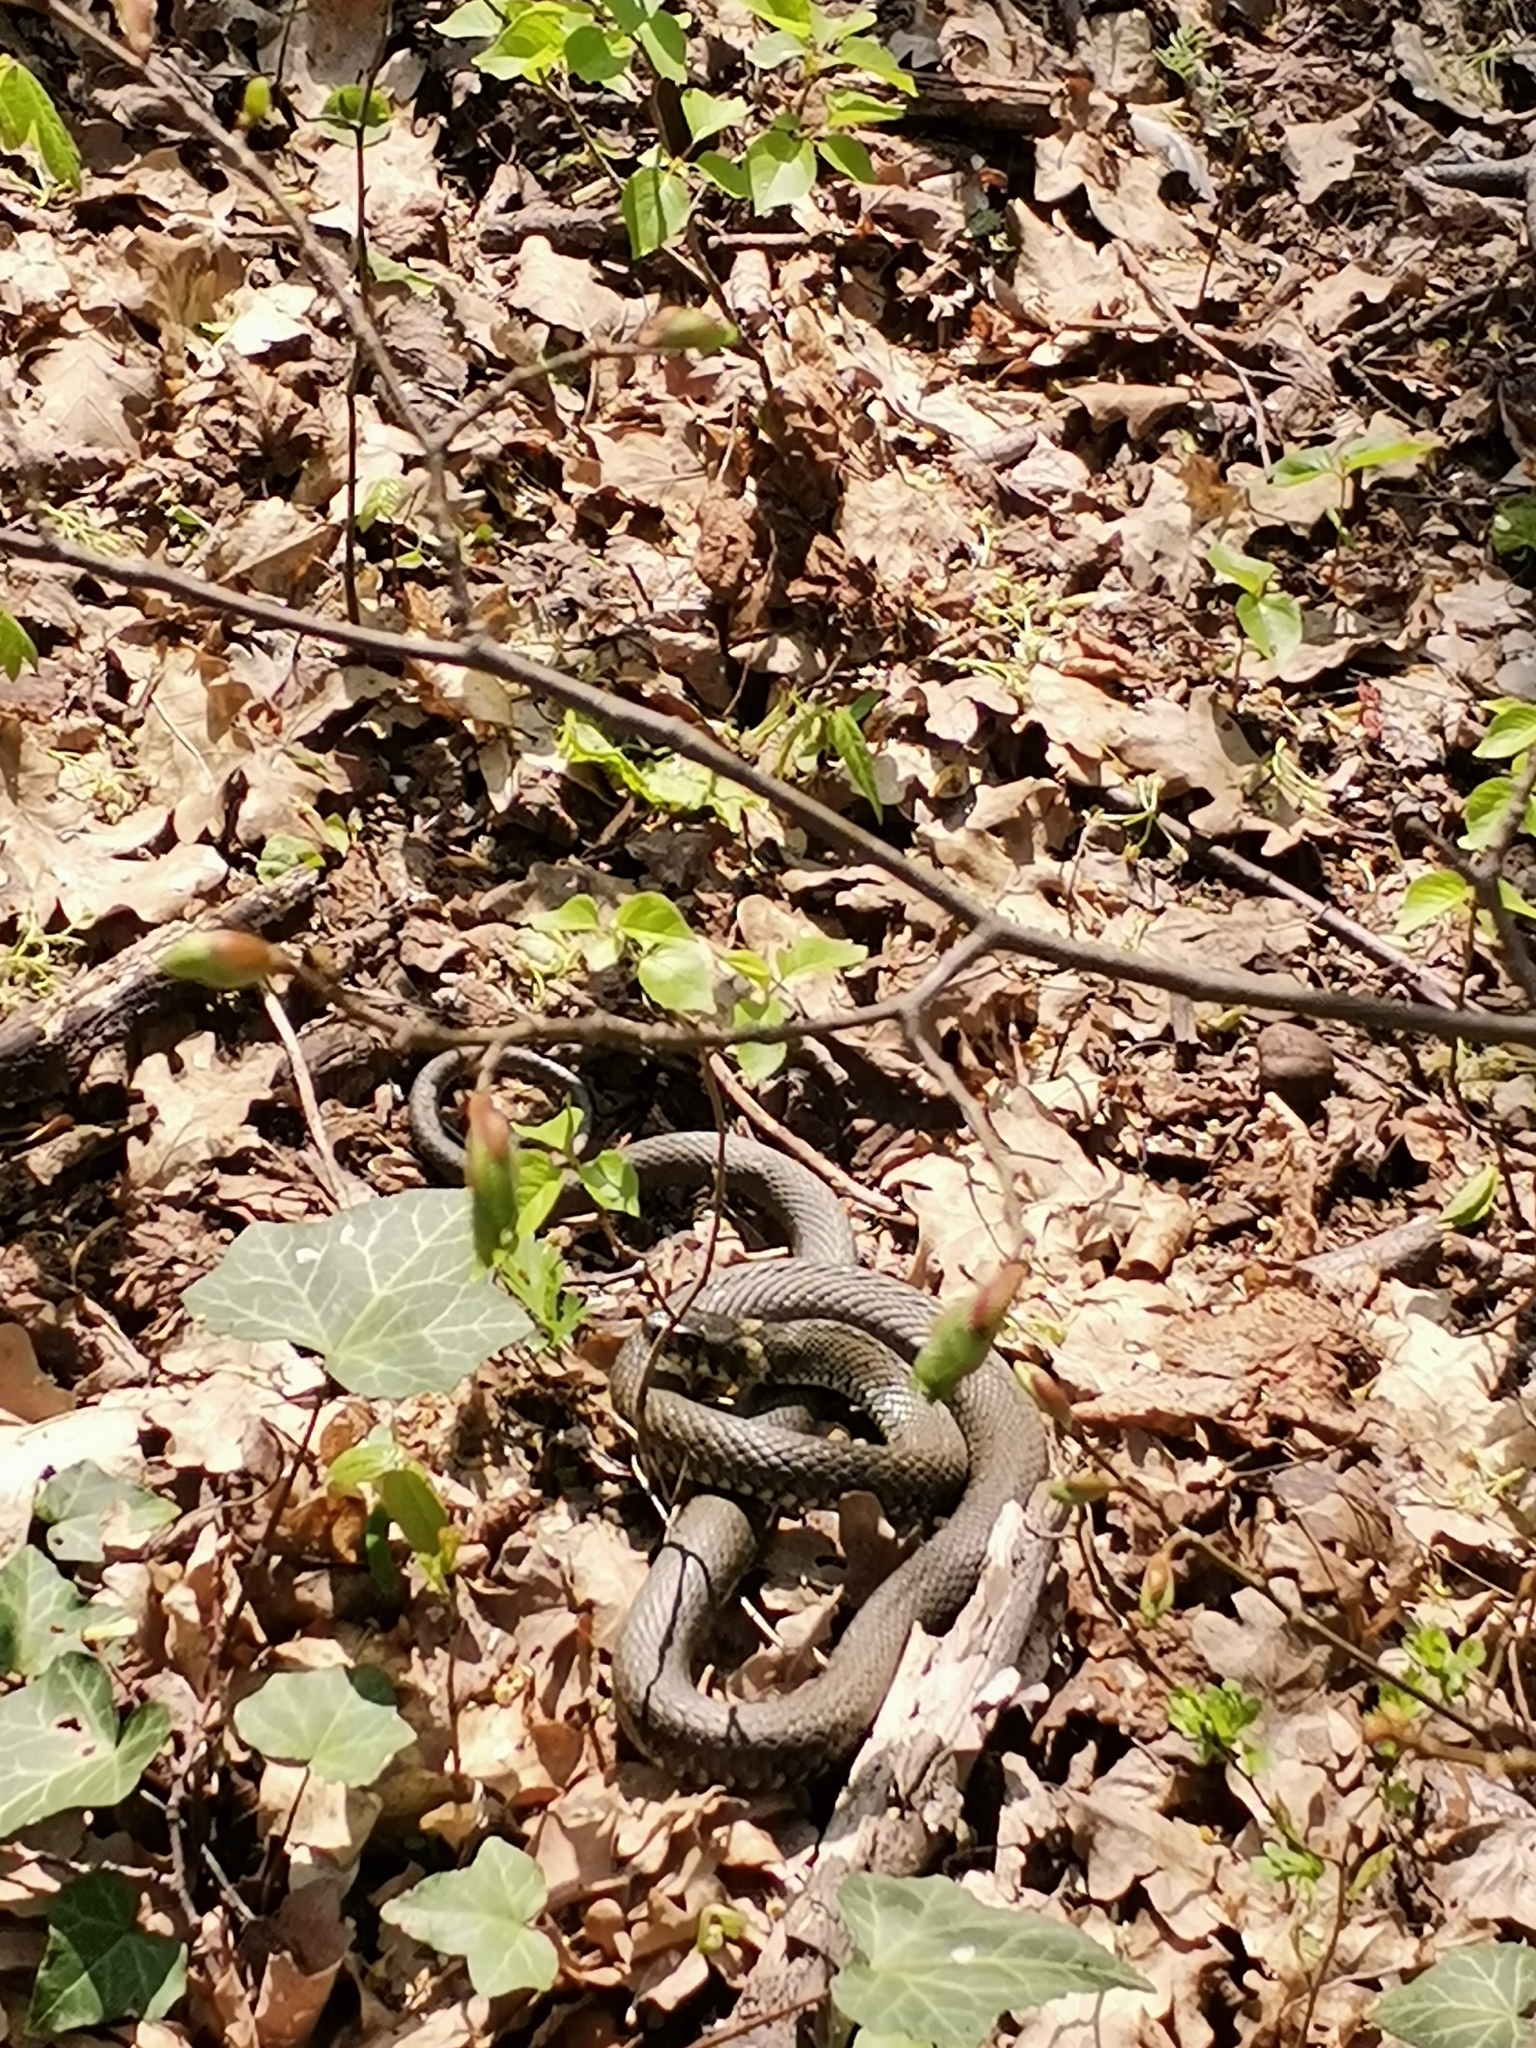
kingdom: Animalia
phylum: Chordata
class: Squamata
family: Colubridae
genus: Natrix
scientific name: Natrix natrix
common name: Grass snake
